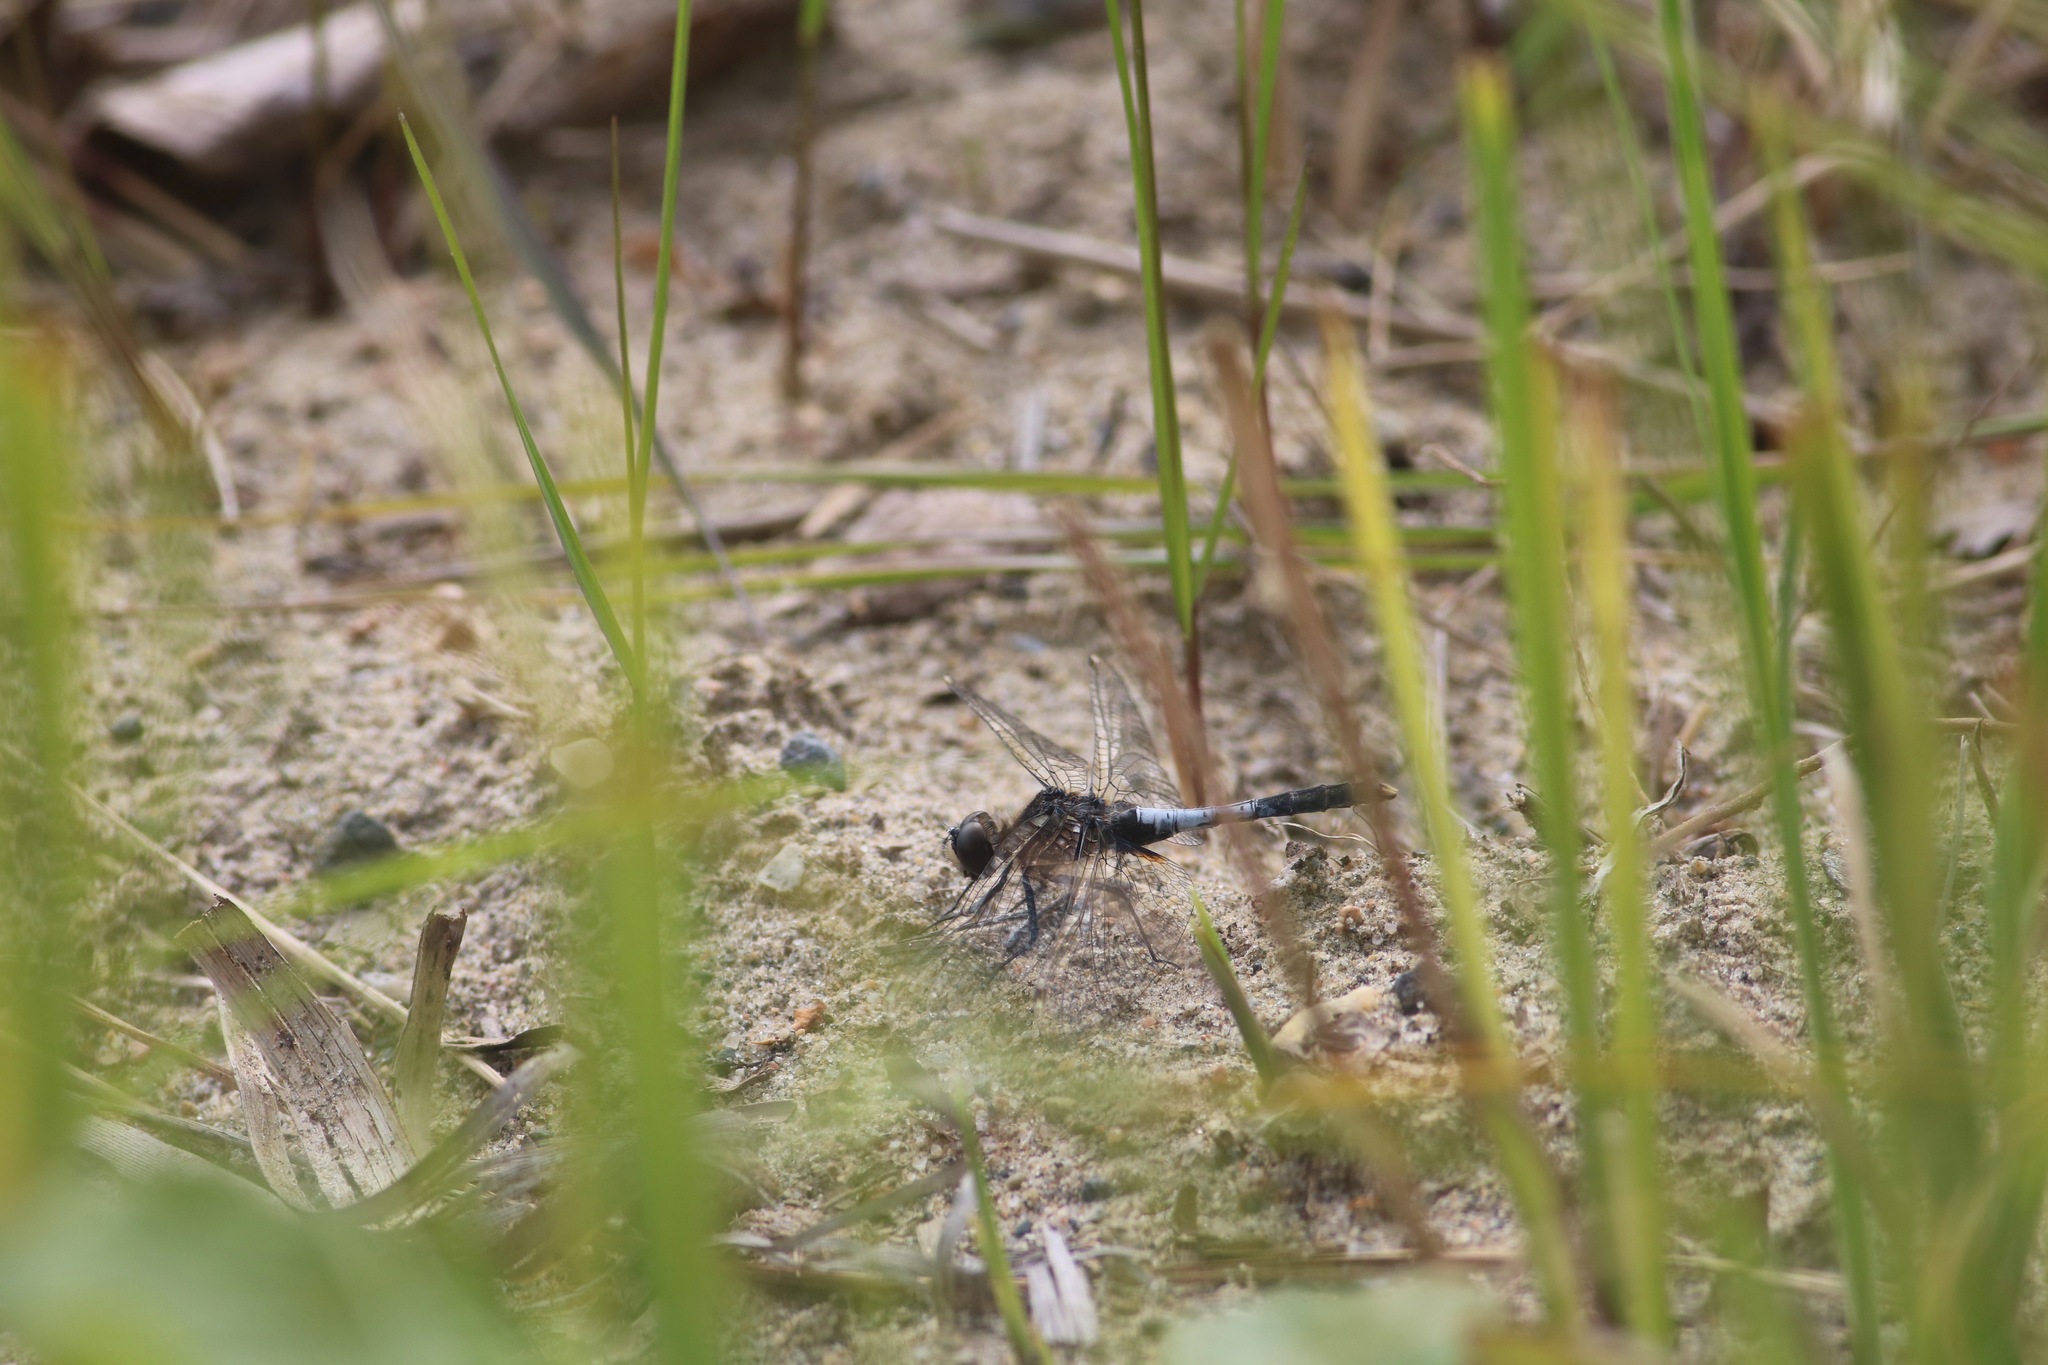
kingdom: Animalia
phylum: Arthropoda
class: Insecta
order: Odonata
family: Libellulidae
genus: Leucorrhinia
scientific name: Leucorrhinia caudalis
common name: Lilypad whiteface
